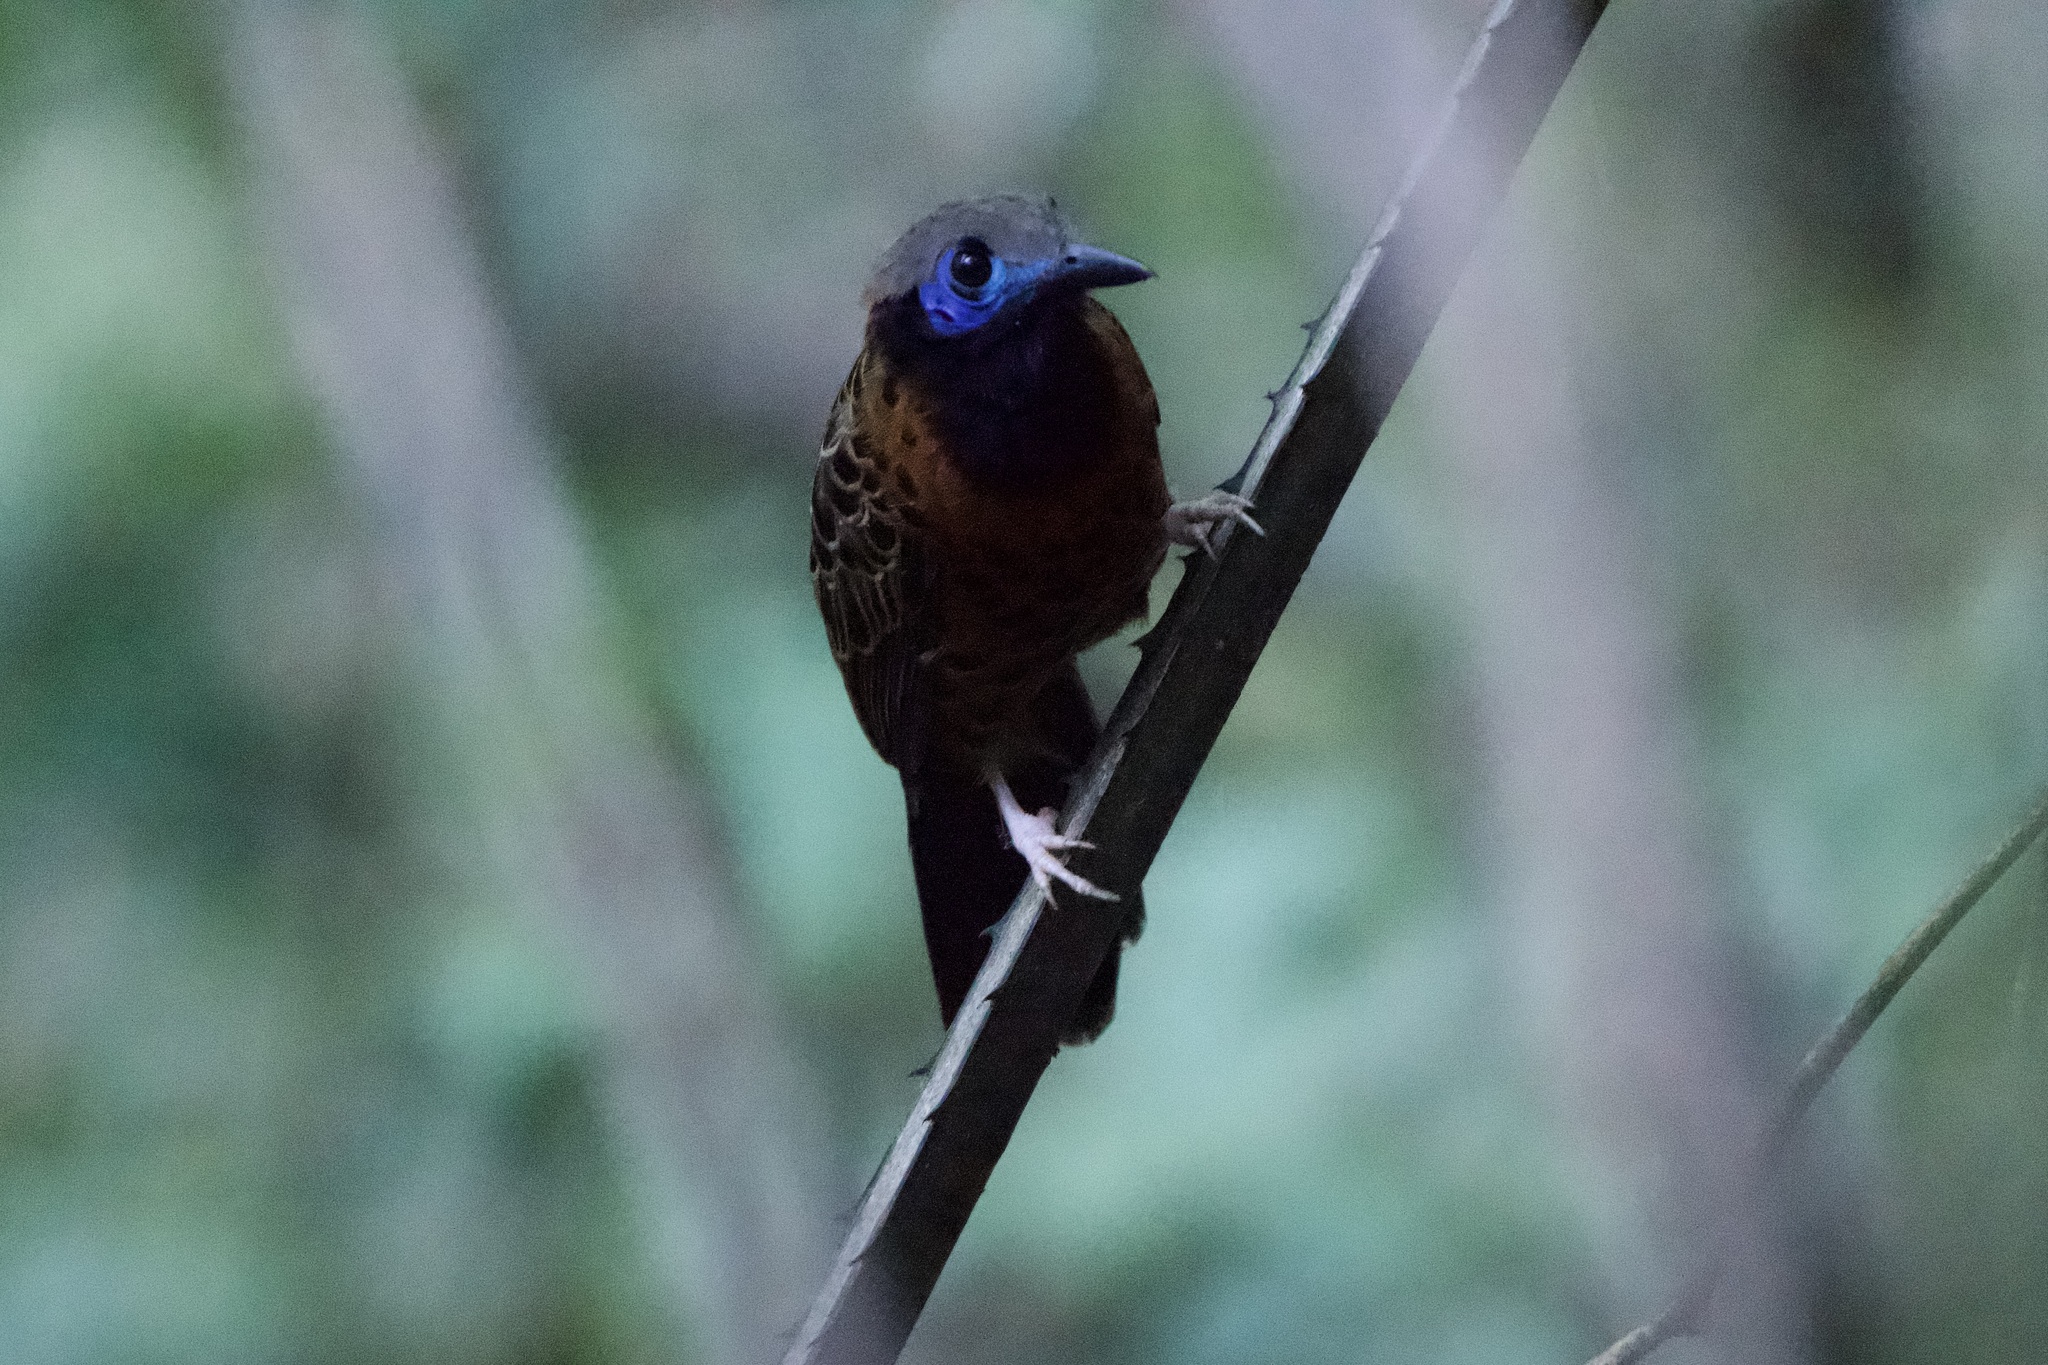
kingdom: Animalia
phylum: Chordata
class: Aves
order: Passeriformes
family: Thamnophilidae
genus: Phaenostictus
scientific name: Phaenostictus mcleannani
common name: Ocellated antbird
